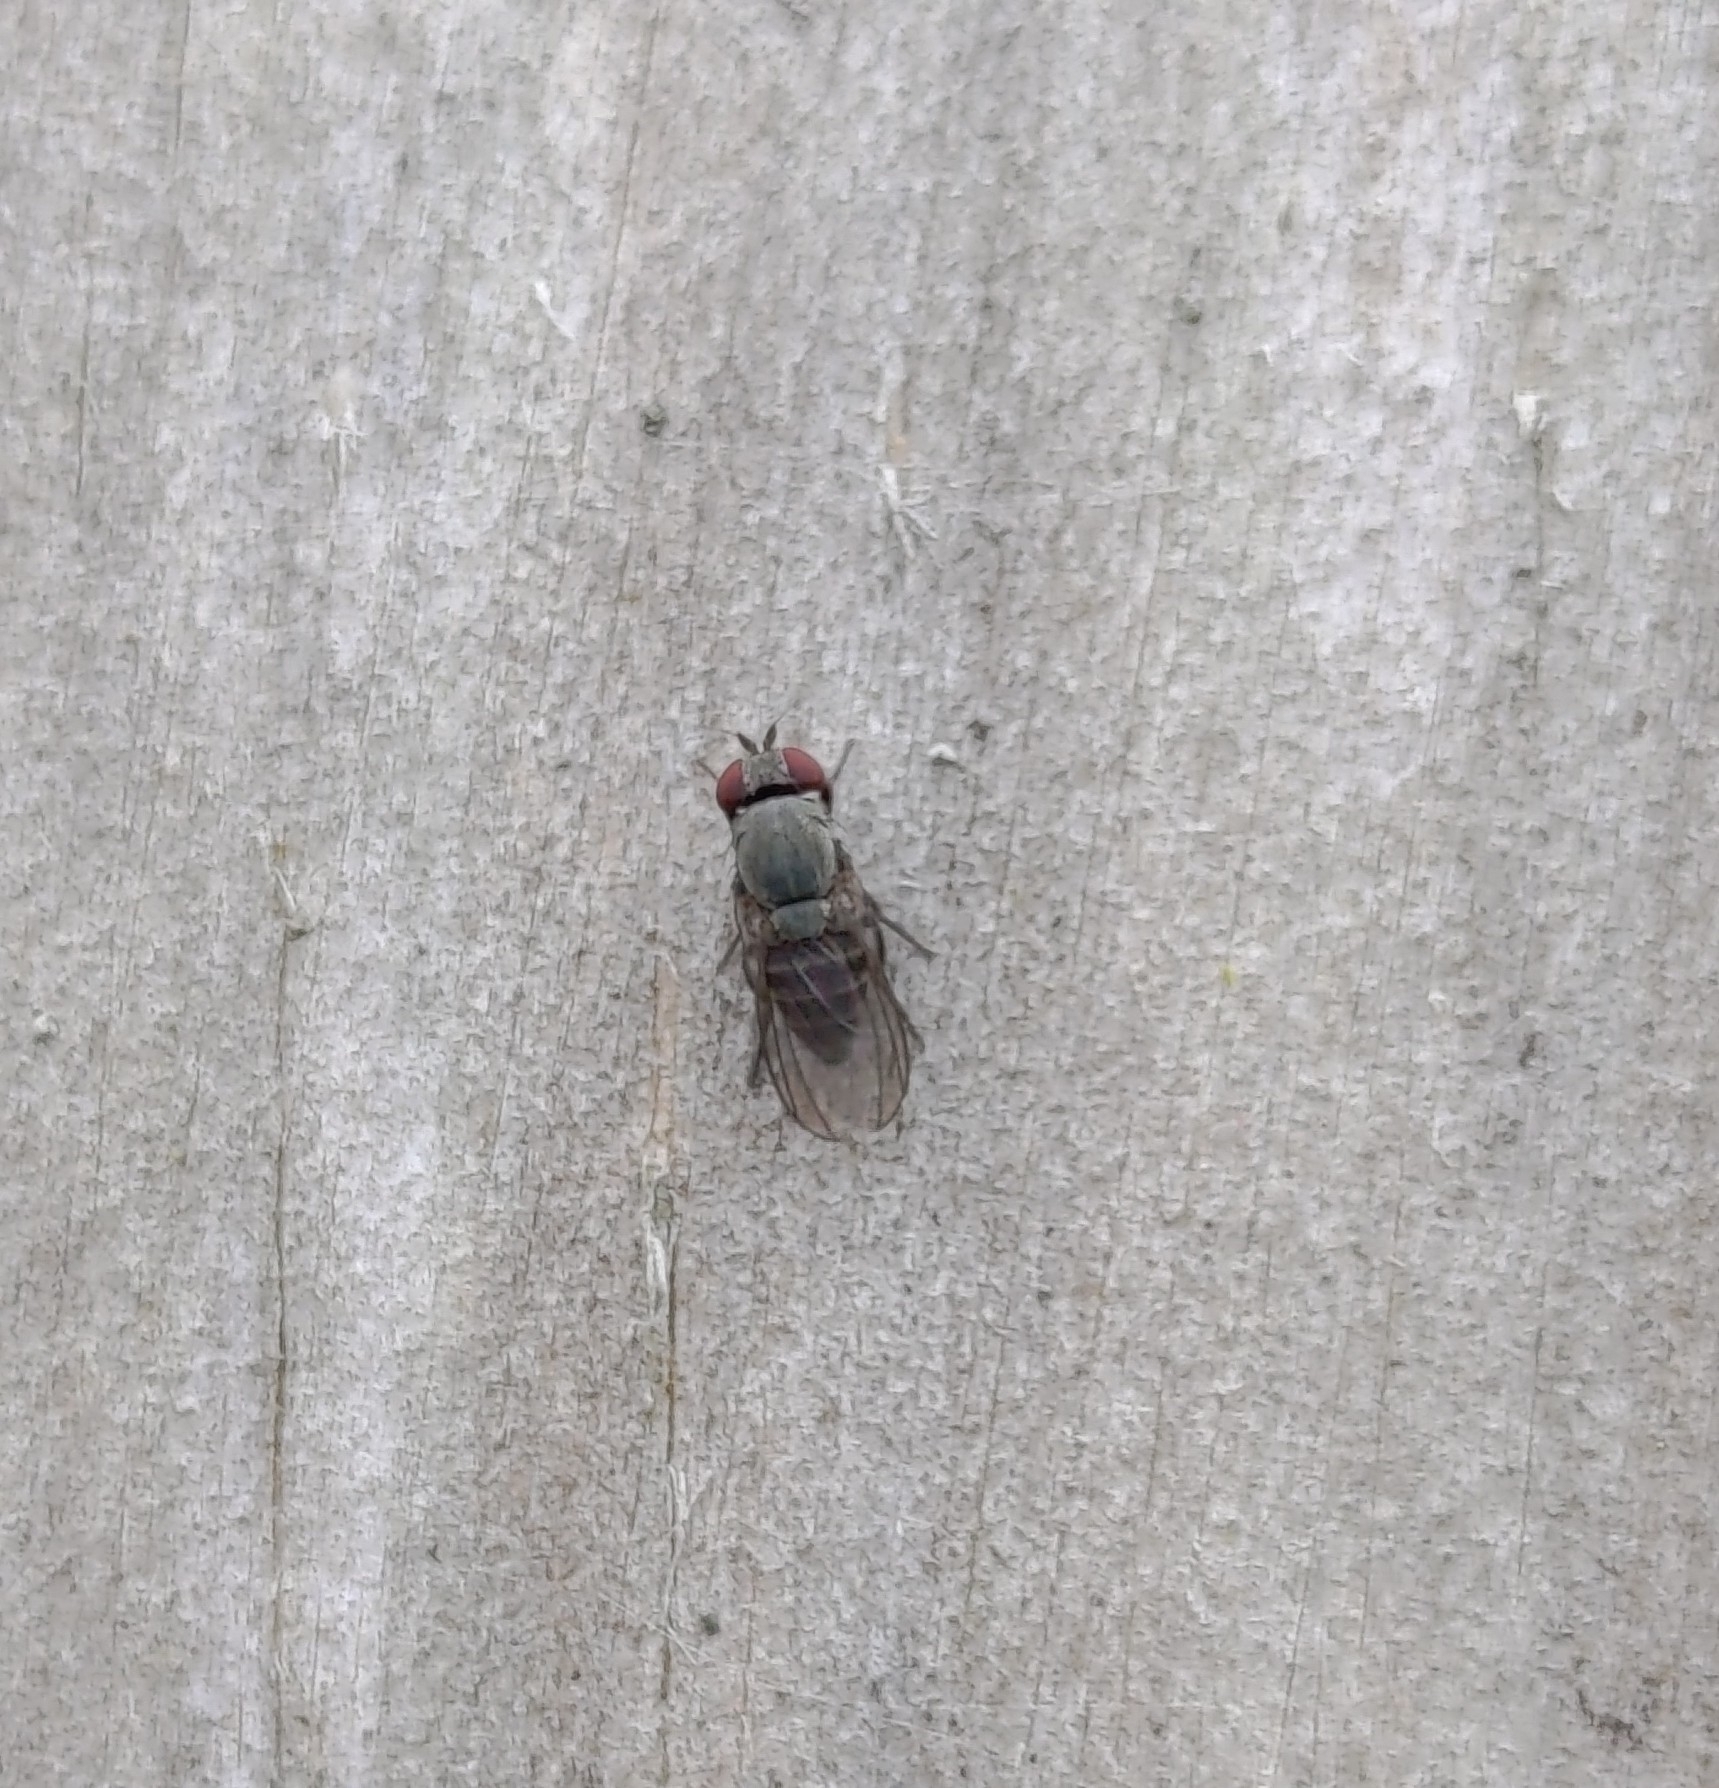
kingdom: Animalia
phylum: Arthropoda
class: Insecta
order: Diptera
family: Drosophilidae
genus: Cacoxenus
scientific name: Cacoxenus indagator
